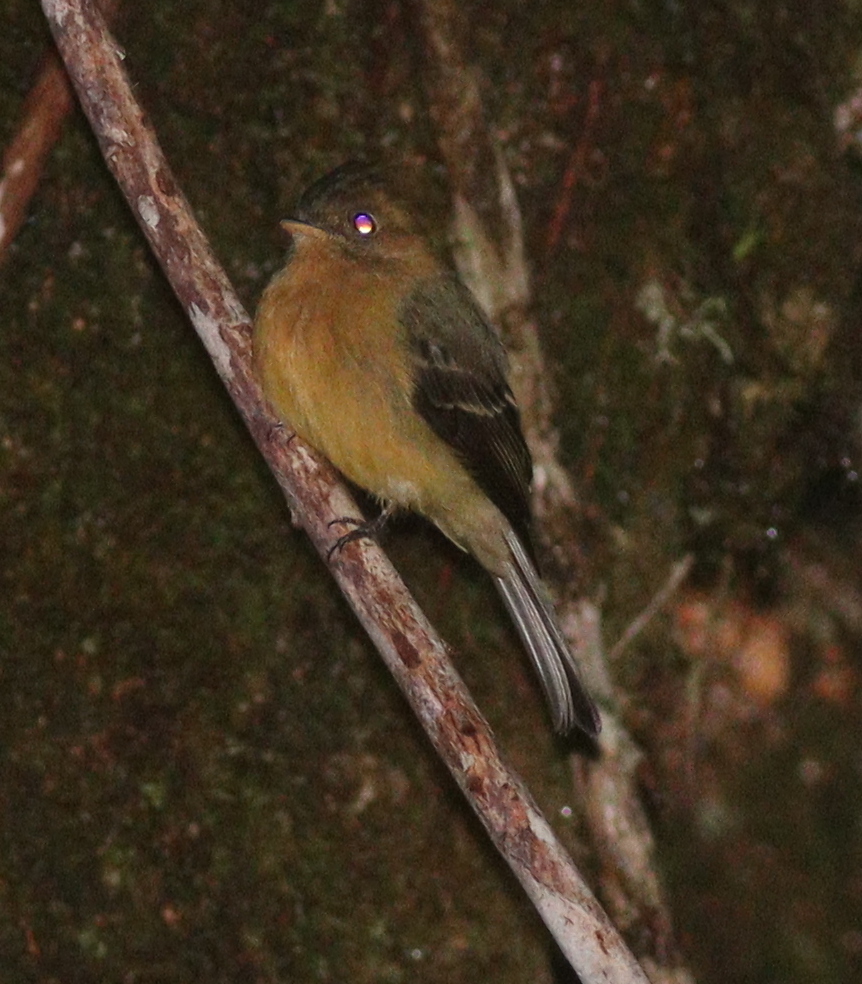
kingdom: Animalia
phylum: Chordata
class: Aves
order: Passeriformes
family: Tyrannidae
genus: Mitrephanes
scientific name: Mitrephanes phaeocercus
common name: Northern tufted flycatcher
